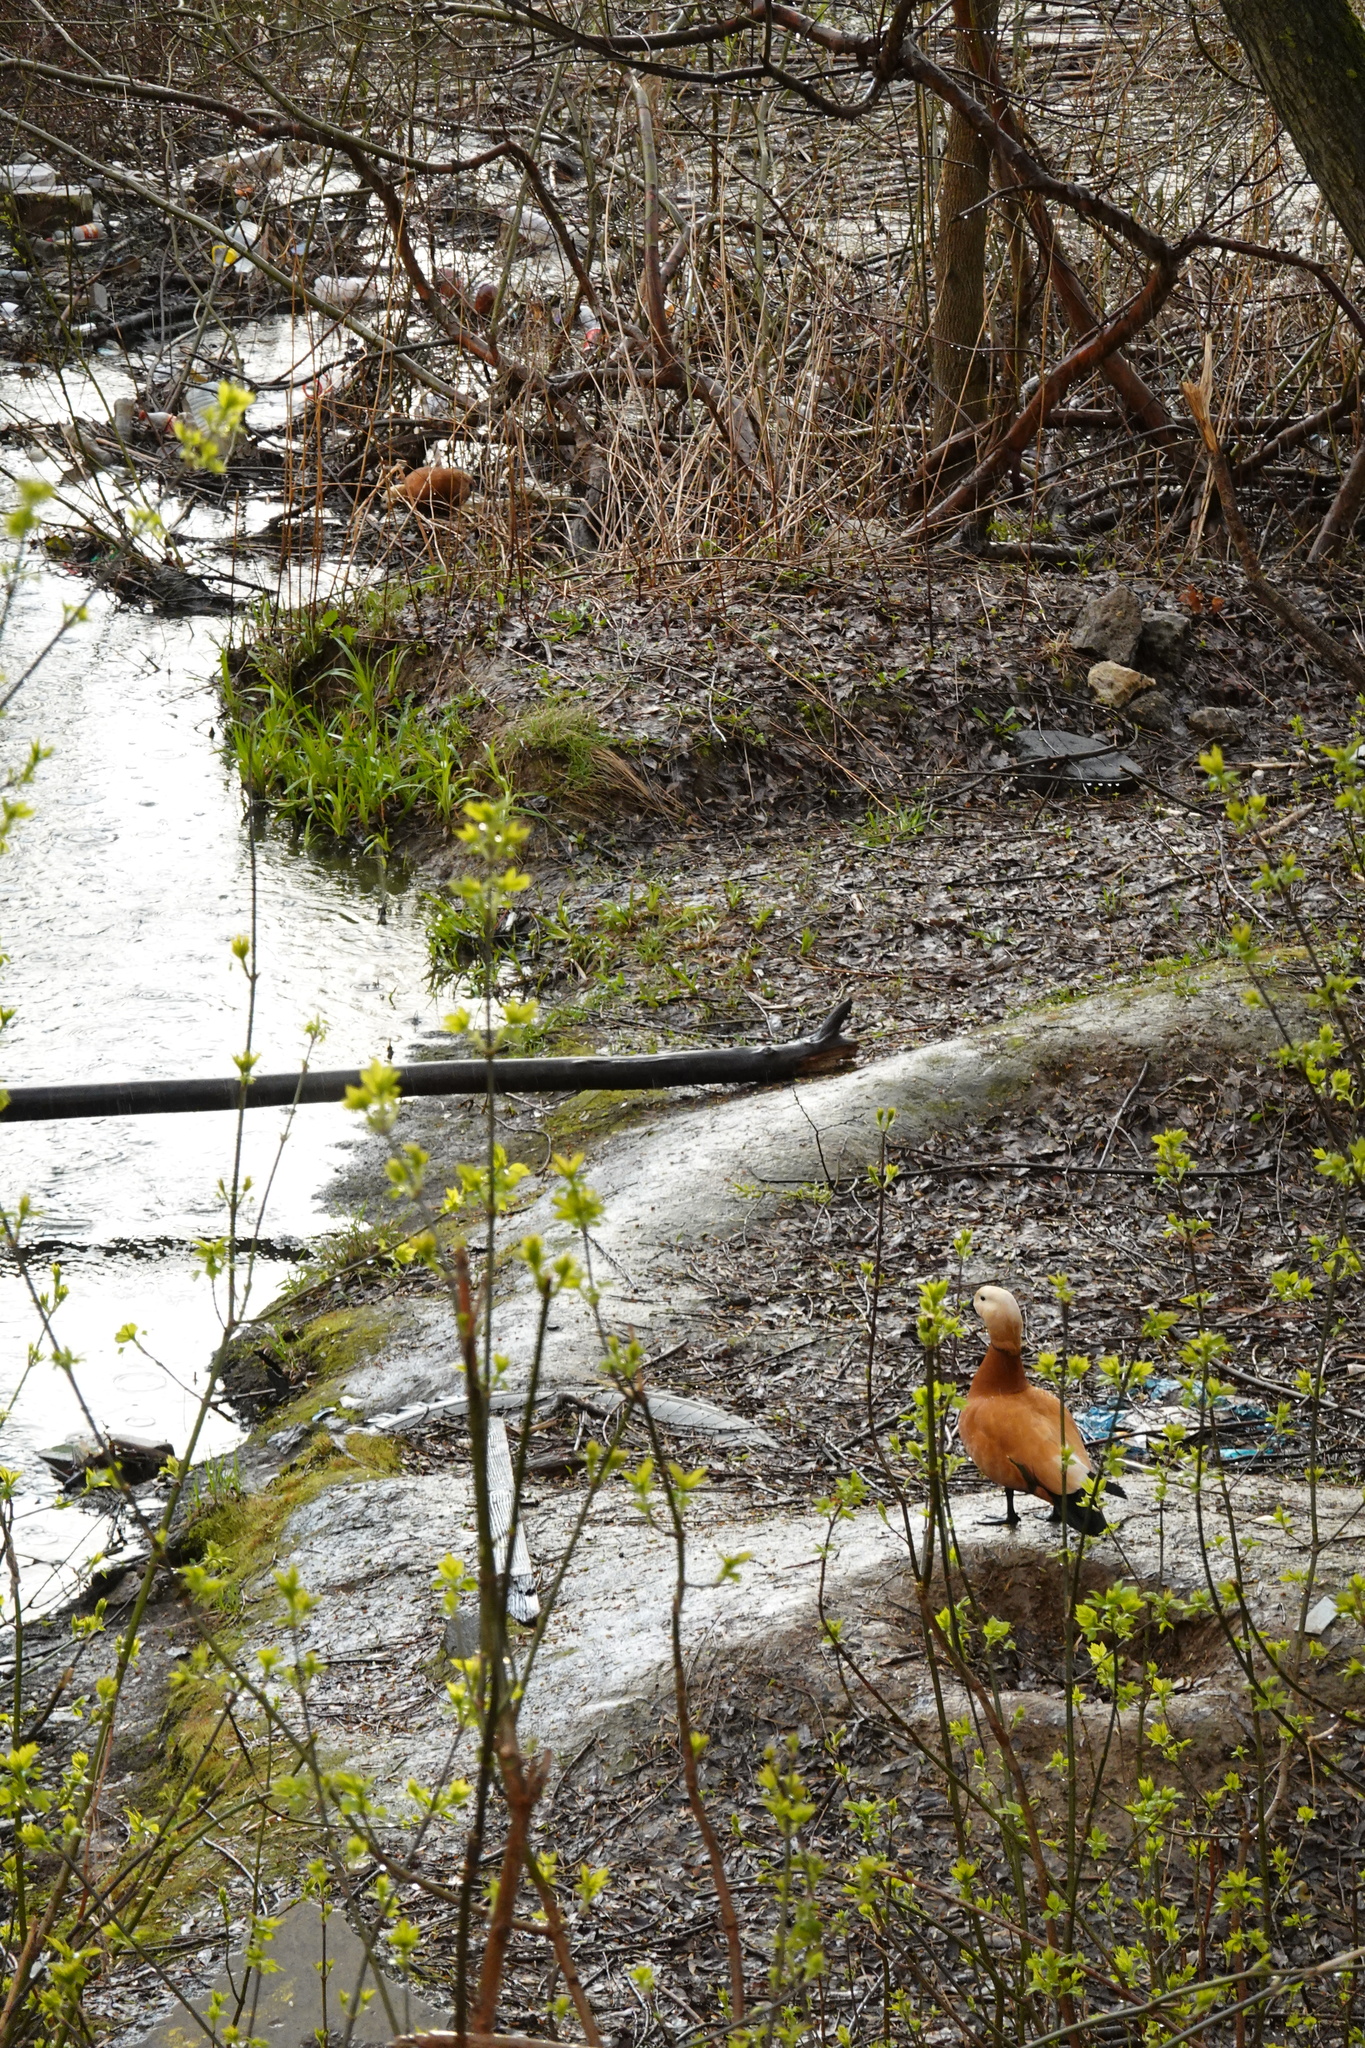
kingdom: Animalia
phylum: Chordata
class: Aves
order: Anseriformes
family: Anatidae
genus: Tadorna
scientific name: Tadorna ferruginea
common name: Ruddy shelduck
